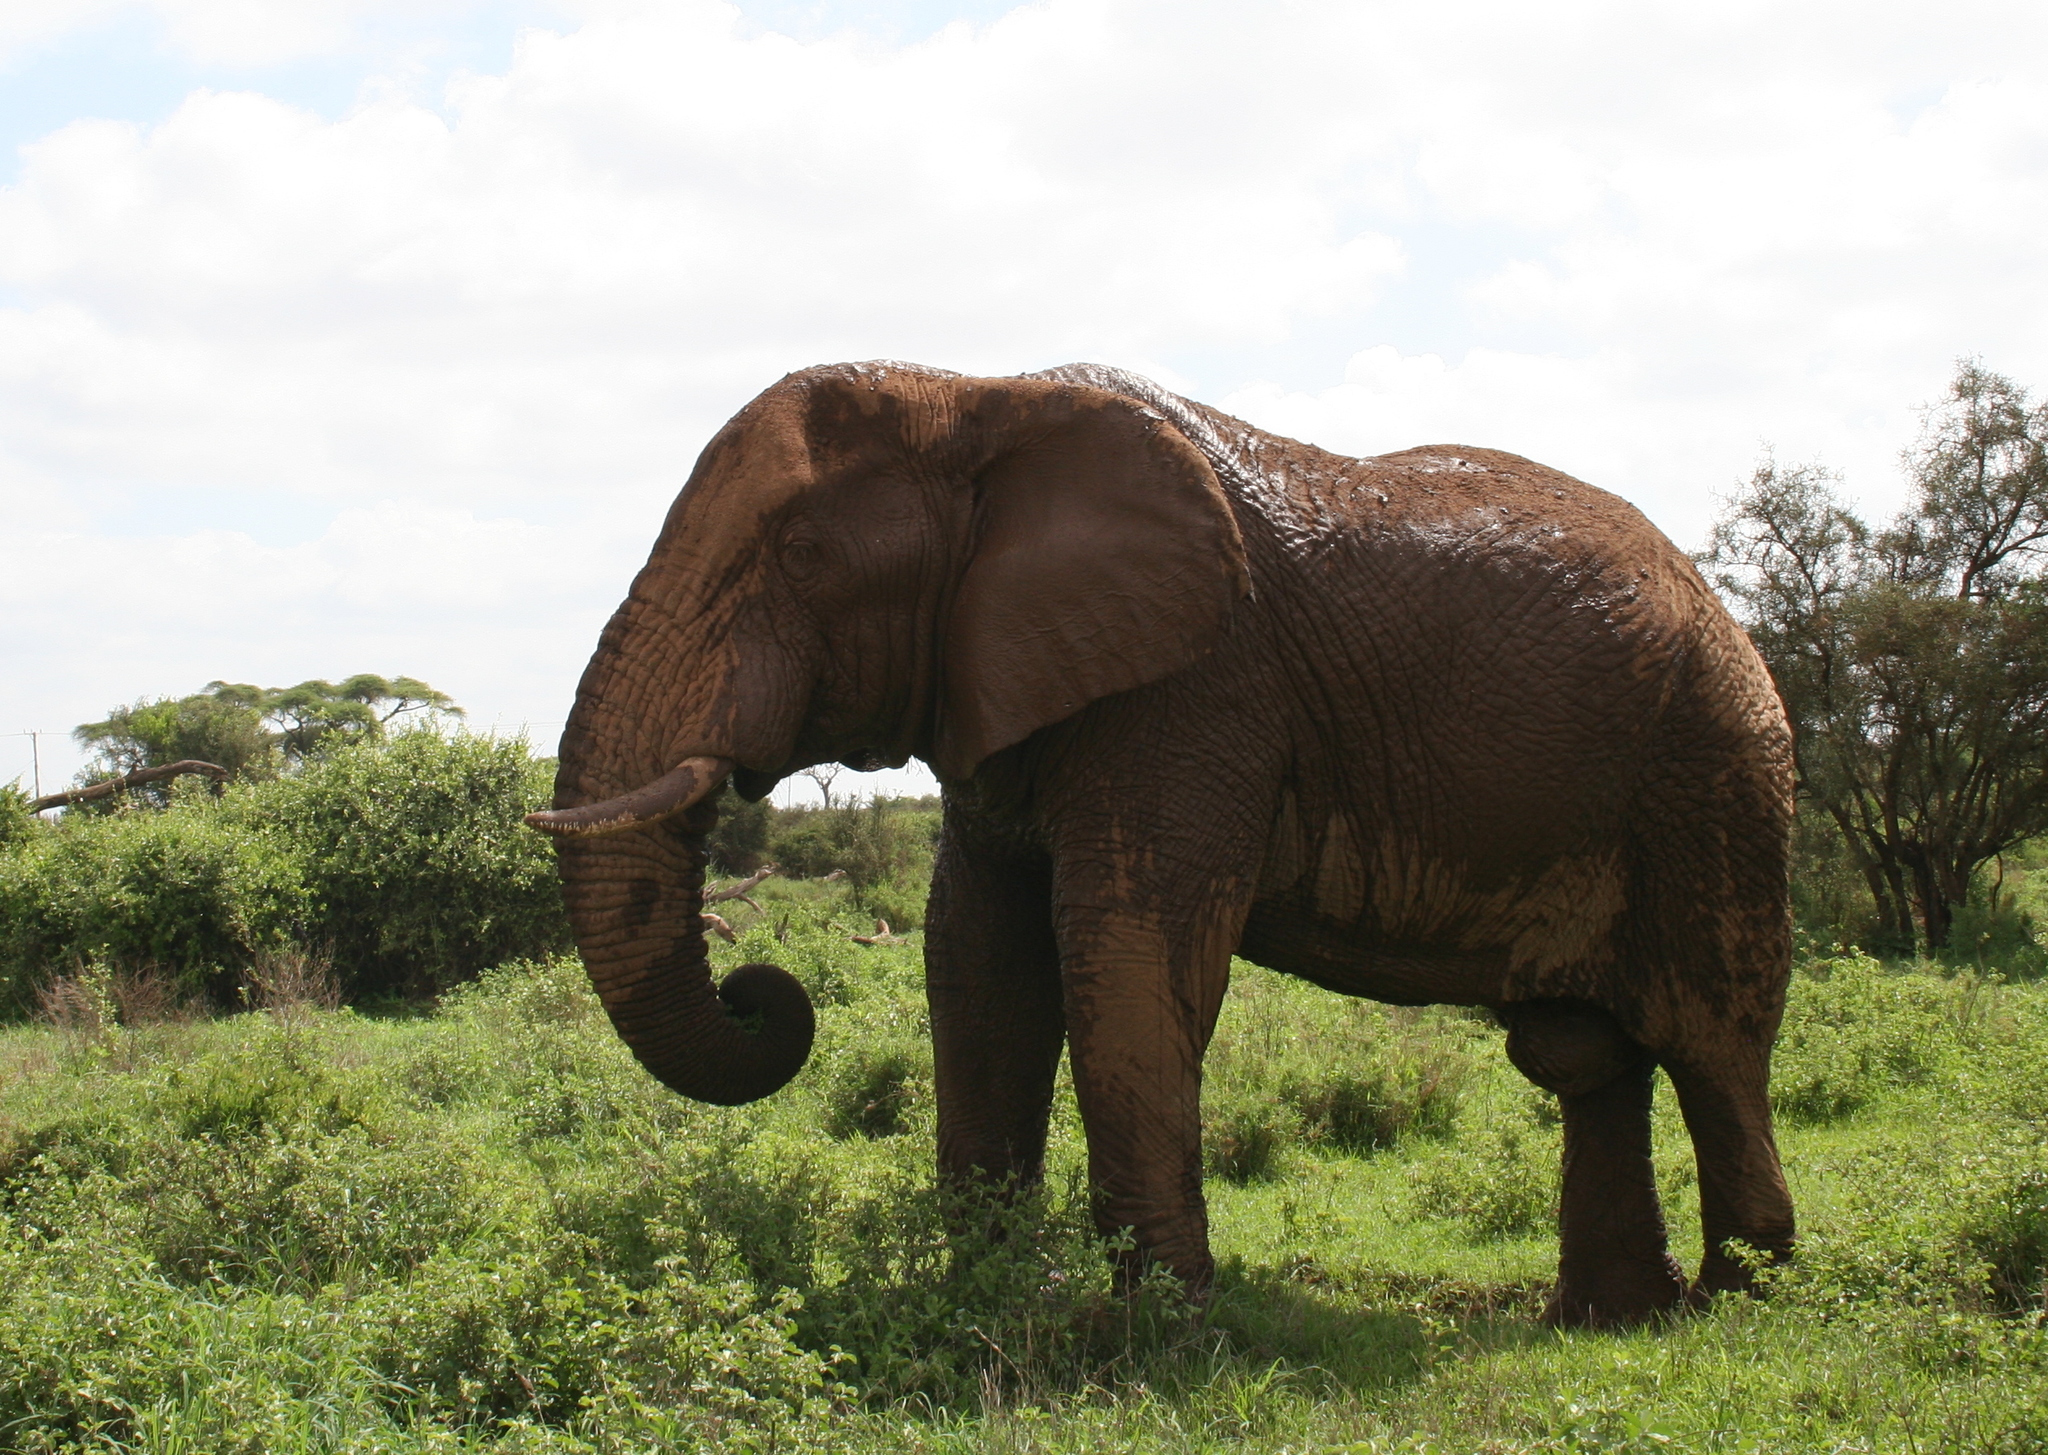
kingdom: Animalia
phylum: Chordata
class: Mammalia
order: Proboscidea
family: Elephantidae
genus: Loxodonta
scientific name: Loxodonta africana
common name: African elephant
